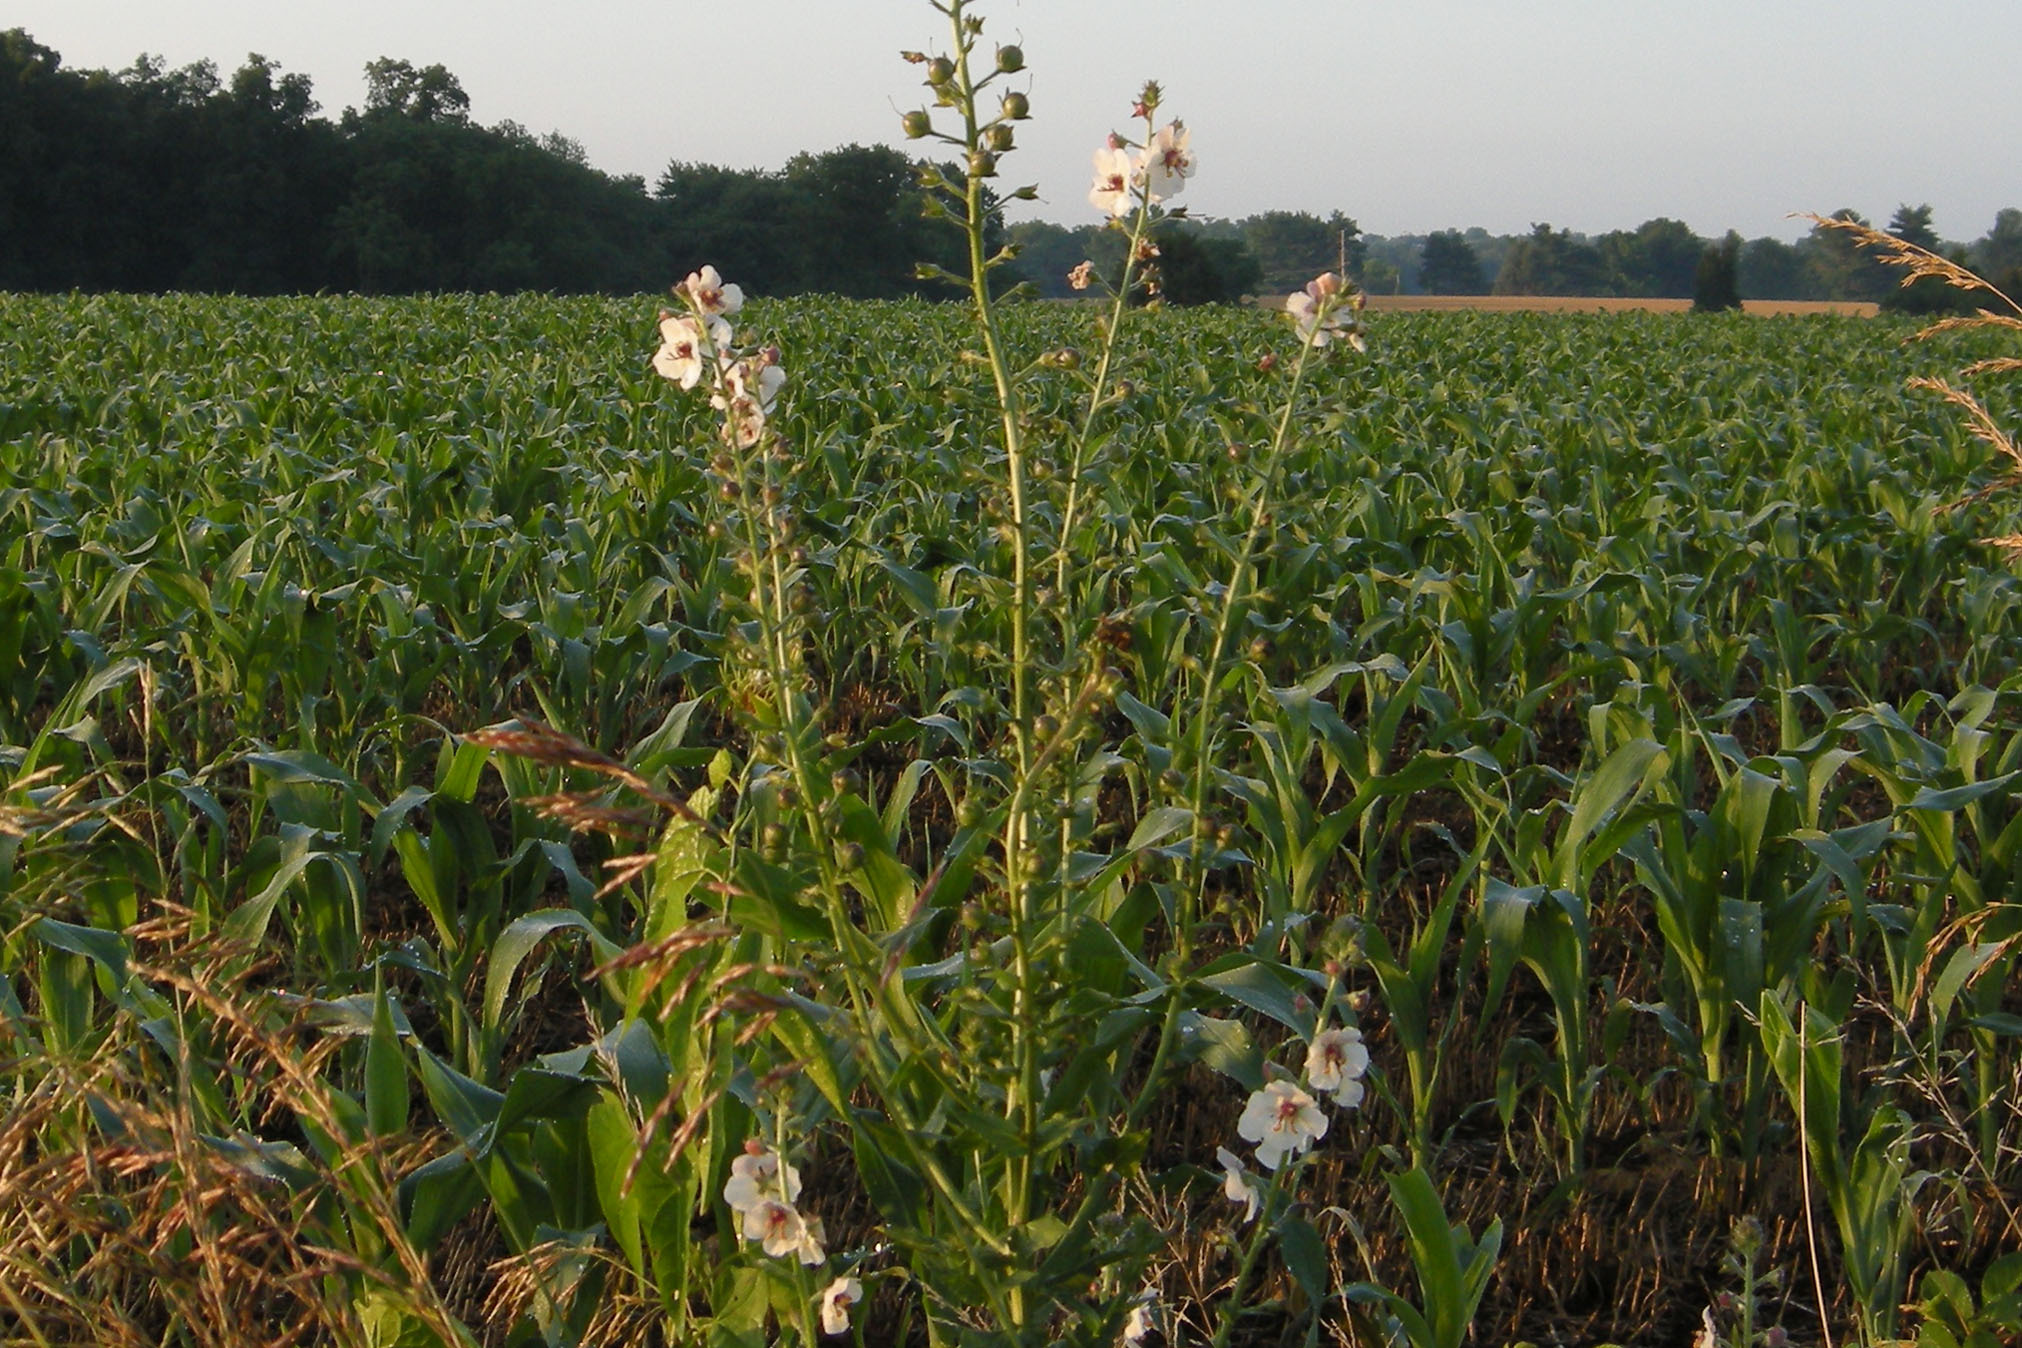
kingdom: Plantae
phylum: Tracheophyta
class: Magnoliopsida
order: Lamiales
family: Scrophulariaceae
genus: Verbascum
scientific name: Verbascum blattaria
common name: Moth mullein
